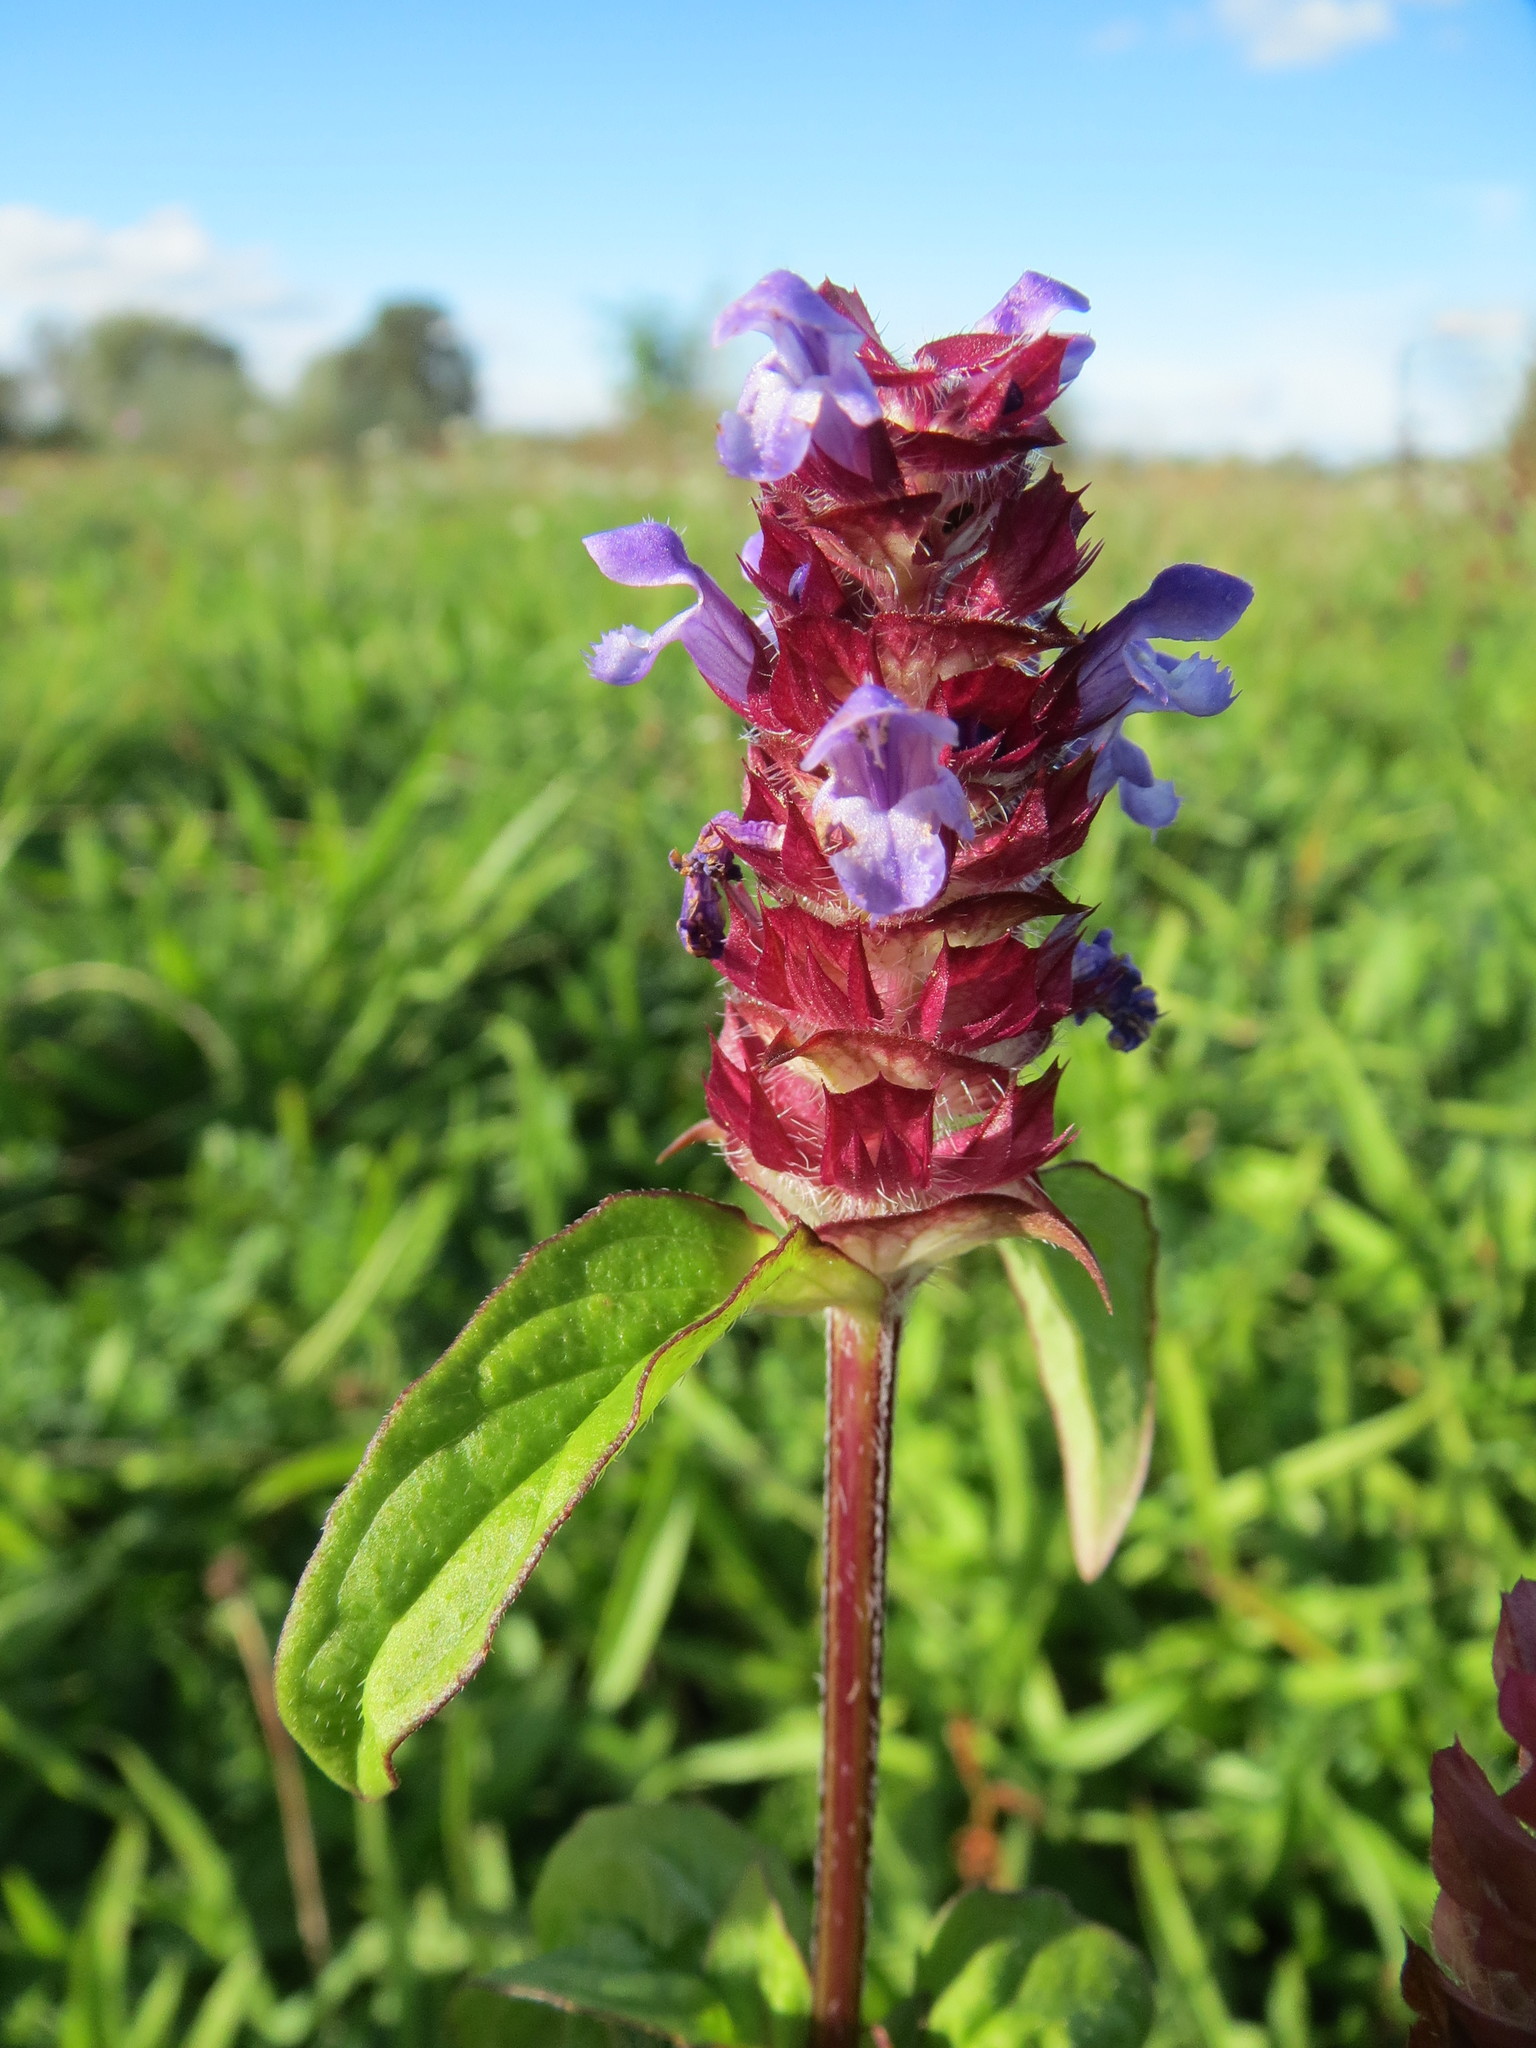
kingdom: Plantae
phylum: Tracheophyta
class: Magnoliopsida
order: Lamiales
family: Lamiaceae
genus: Prunella
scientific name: Prunella vulgaris
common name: Heal-all
